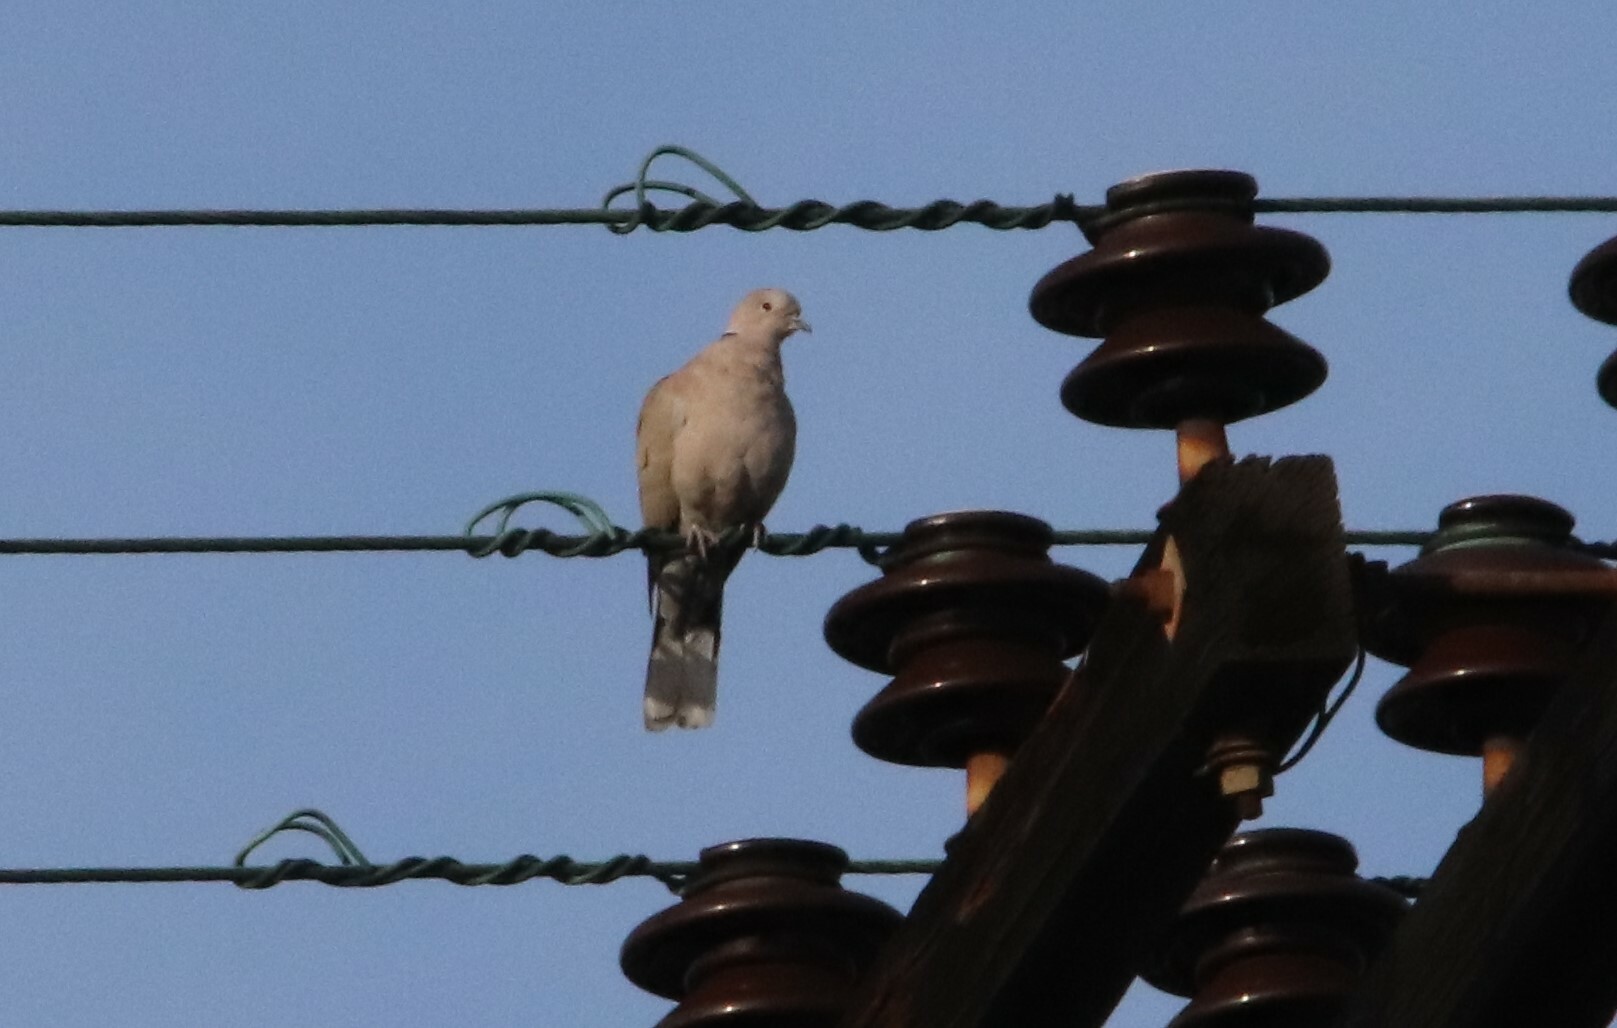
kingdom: Animalia
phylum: Chordata
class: Aves
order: Columbiformes
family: Columbidae
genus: Streptopelia
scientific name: Streptopelia decaocto
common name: Eurasian collared dove
